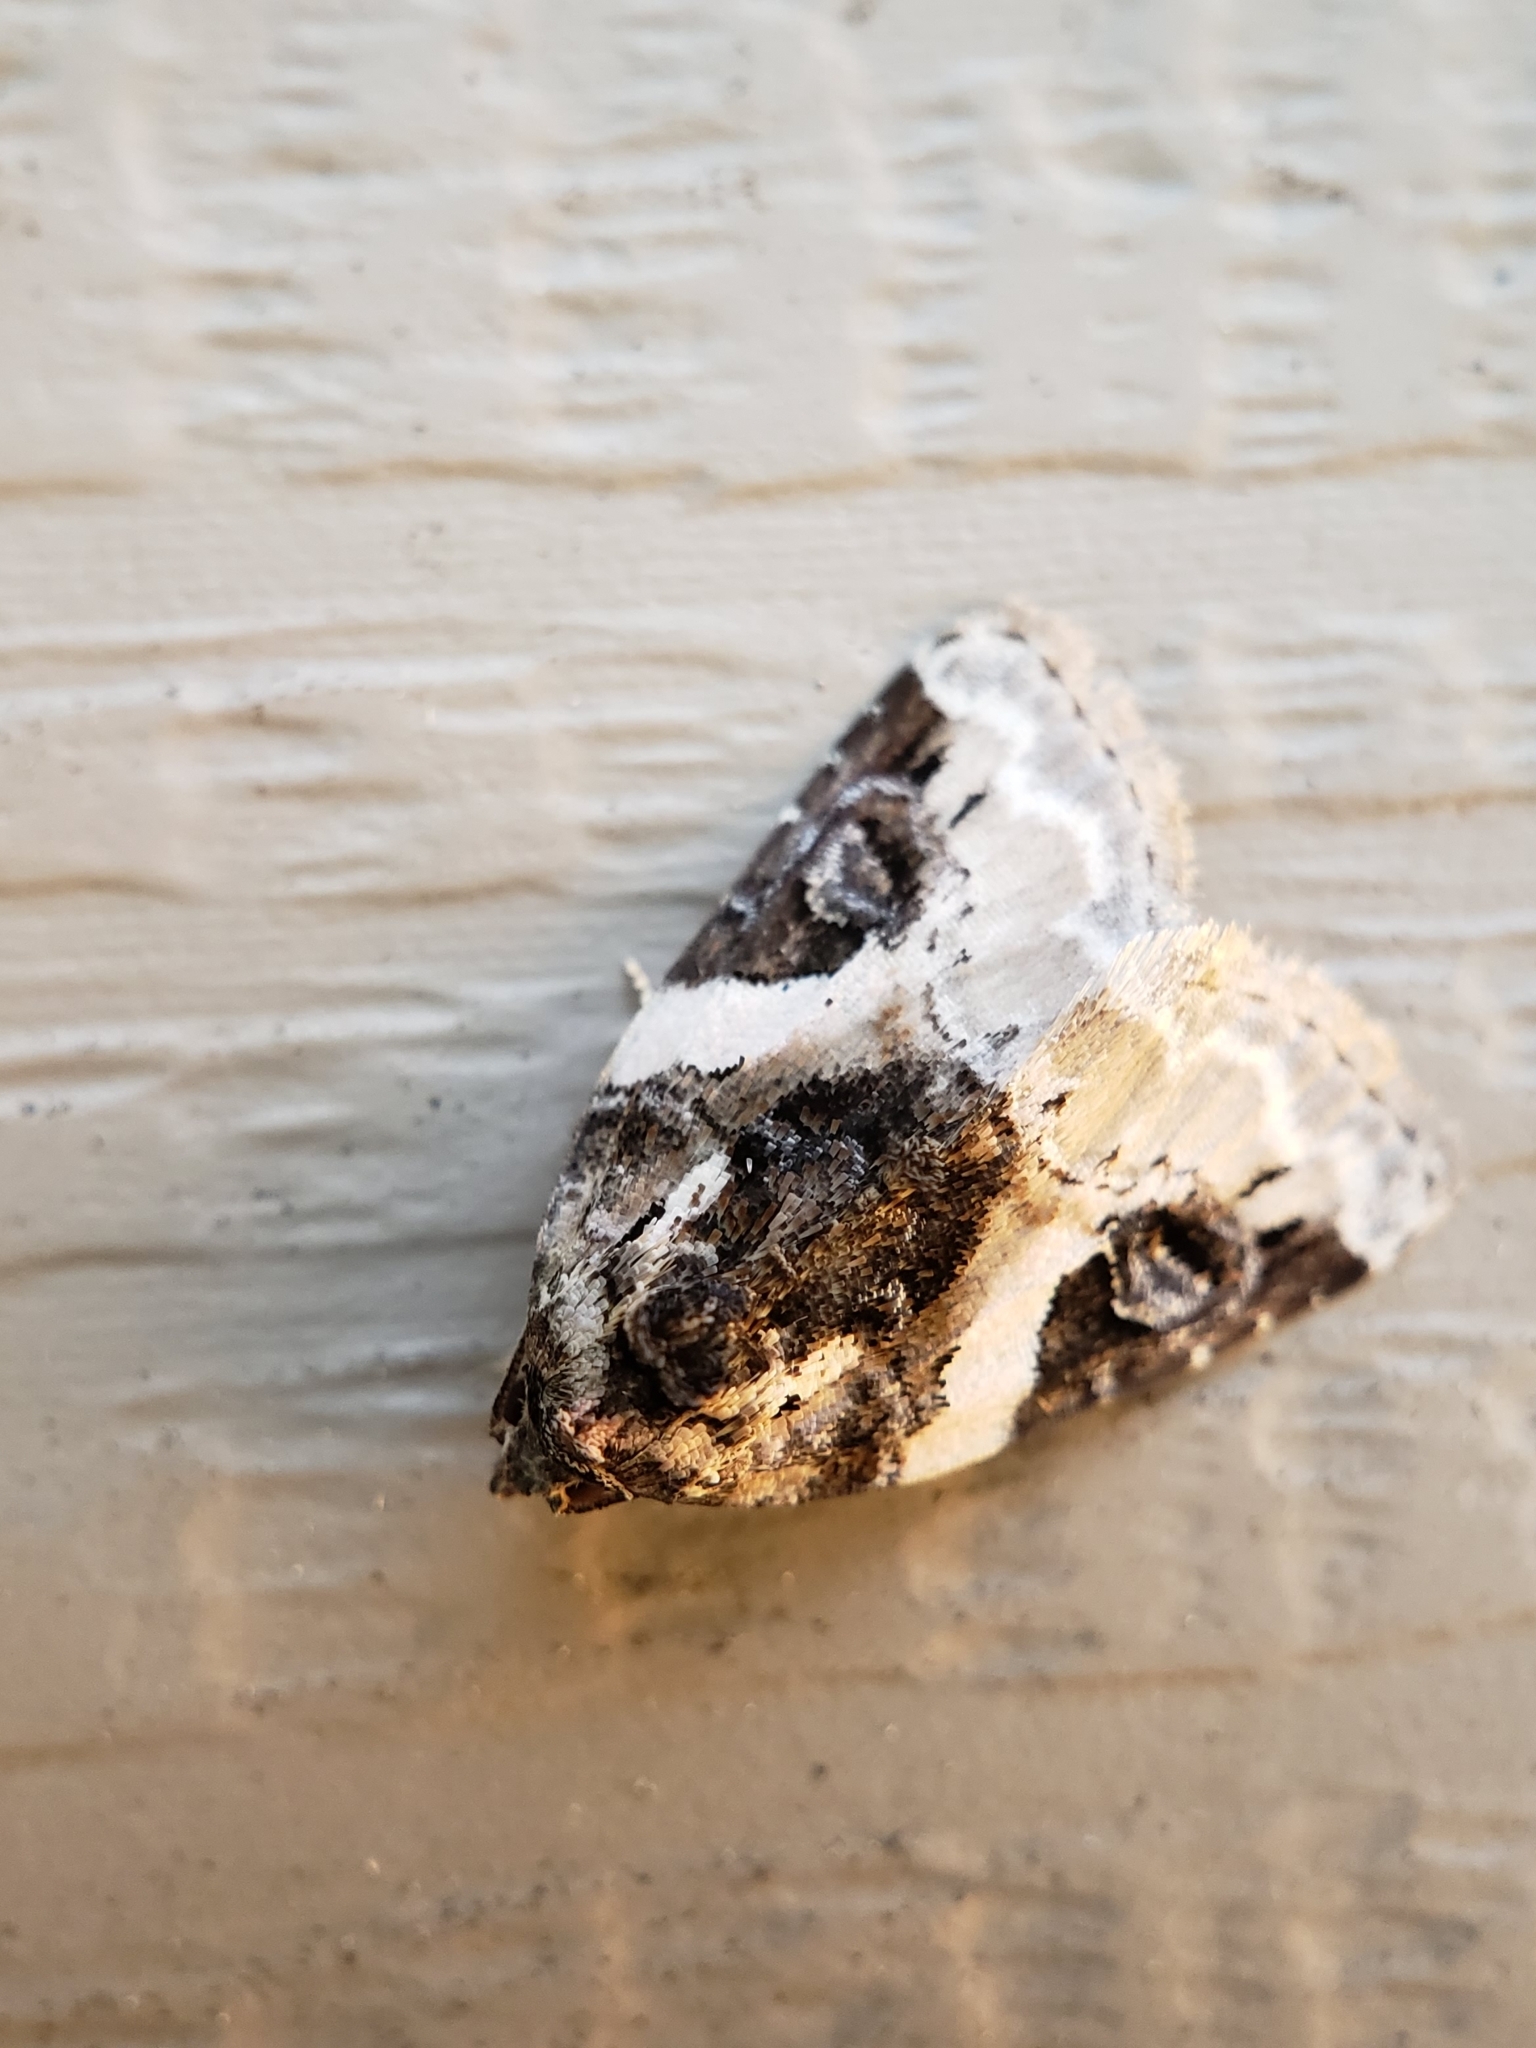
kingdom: Animalia
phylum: Arthropoda
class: Insecta
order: Lepidoptera
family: Noctuidae
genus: Pseudeustrotia
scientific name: Pseudeustrotia carneola
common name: Pink-barred lithacodia moth
